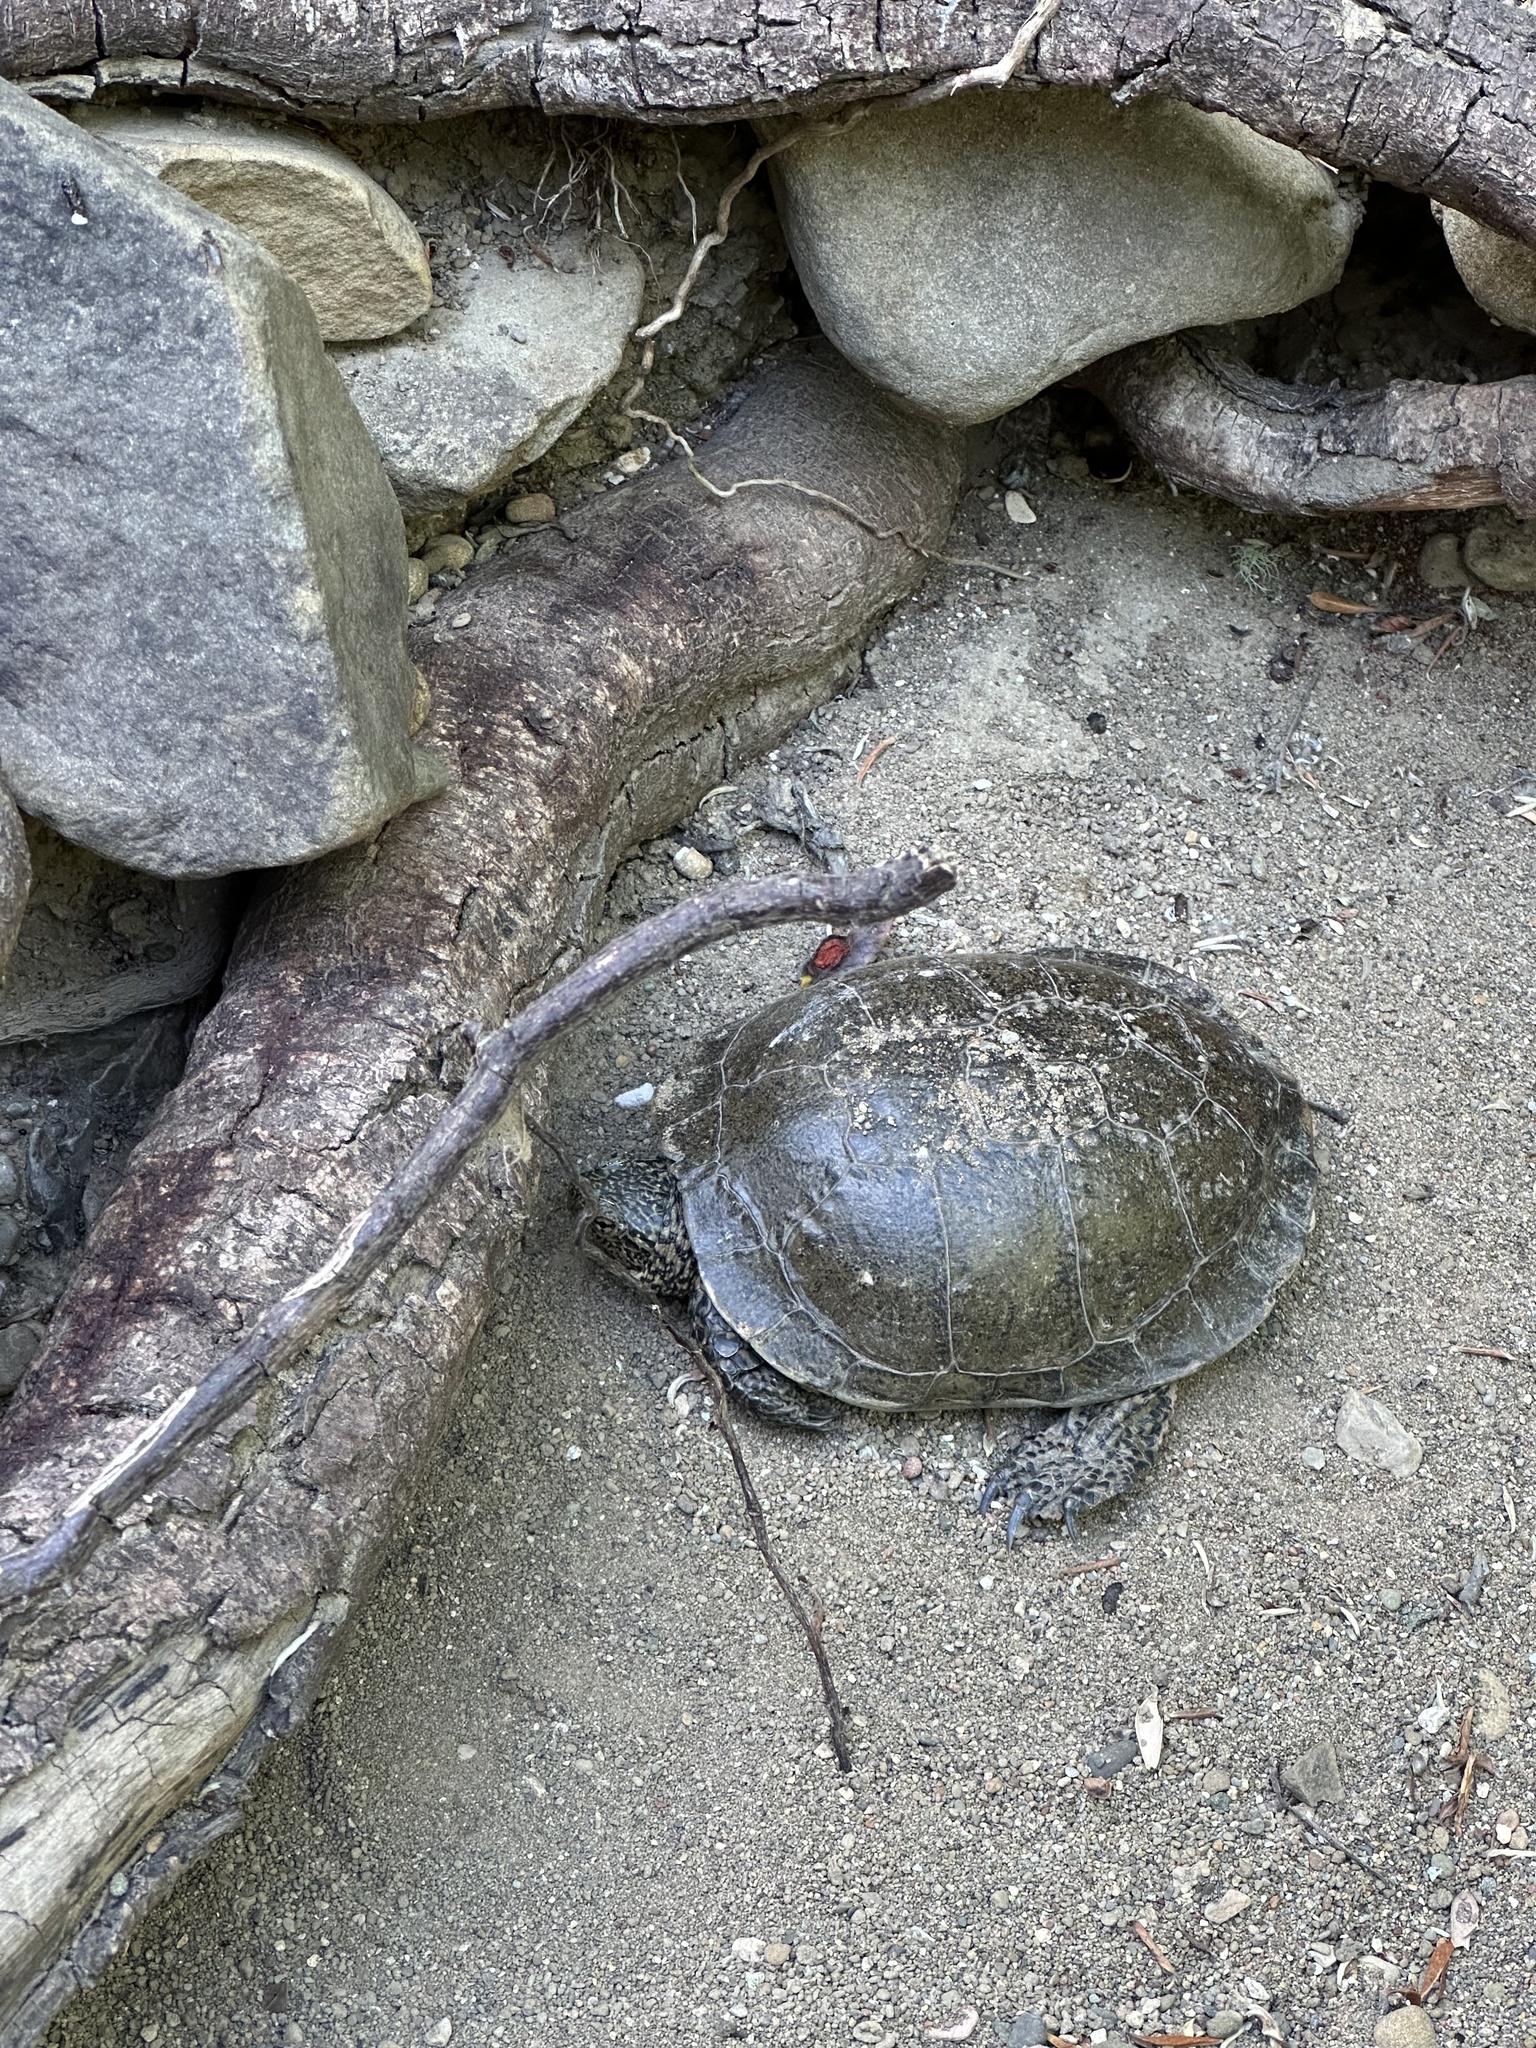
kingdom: Animalia
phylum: Chordata
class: Testudines
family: Emydidae
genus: Actinemys
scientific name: Actinemys marmorata
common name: Western pond turtle
